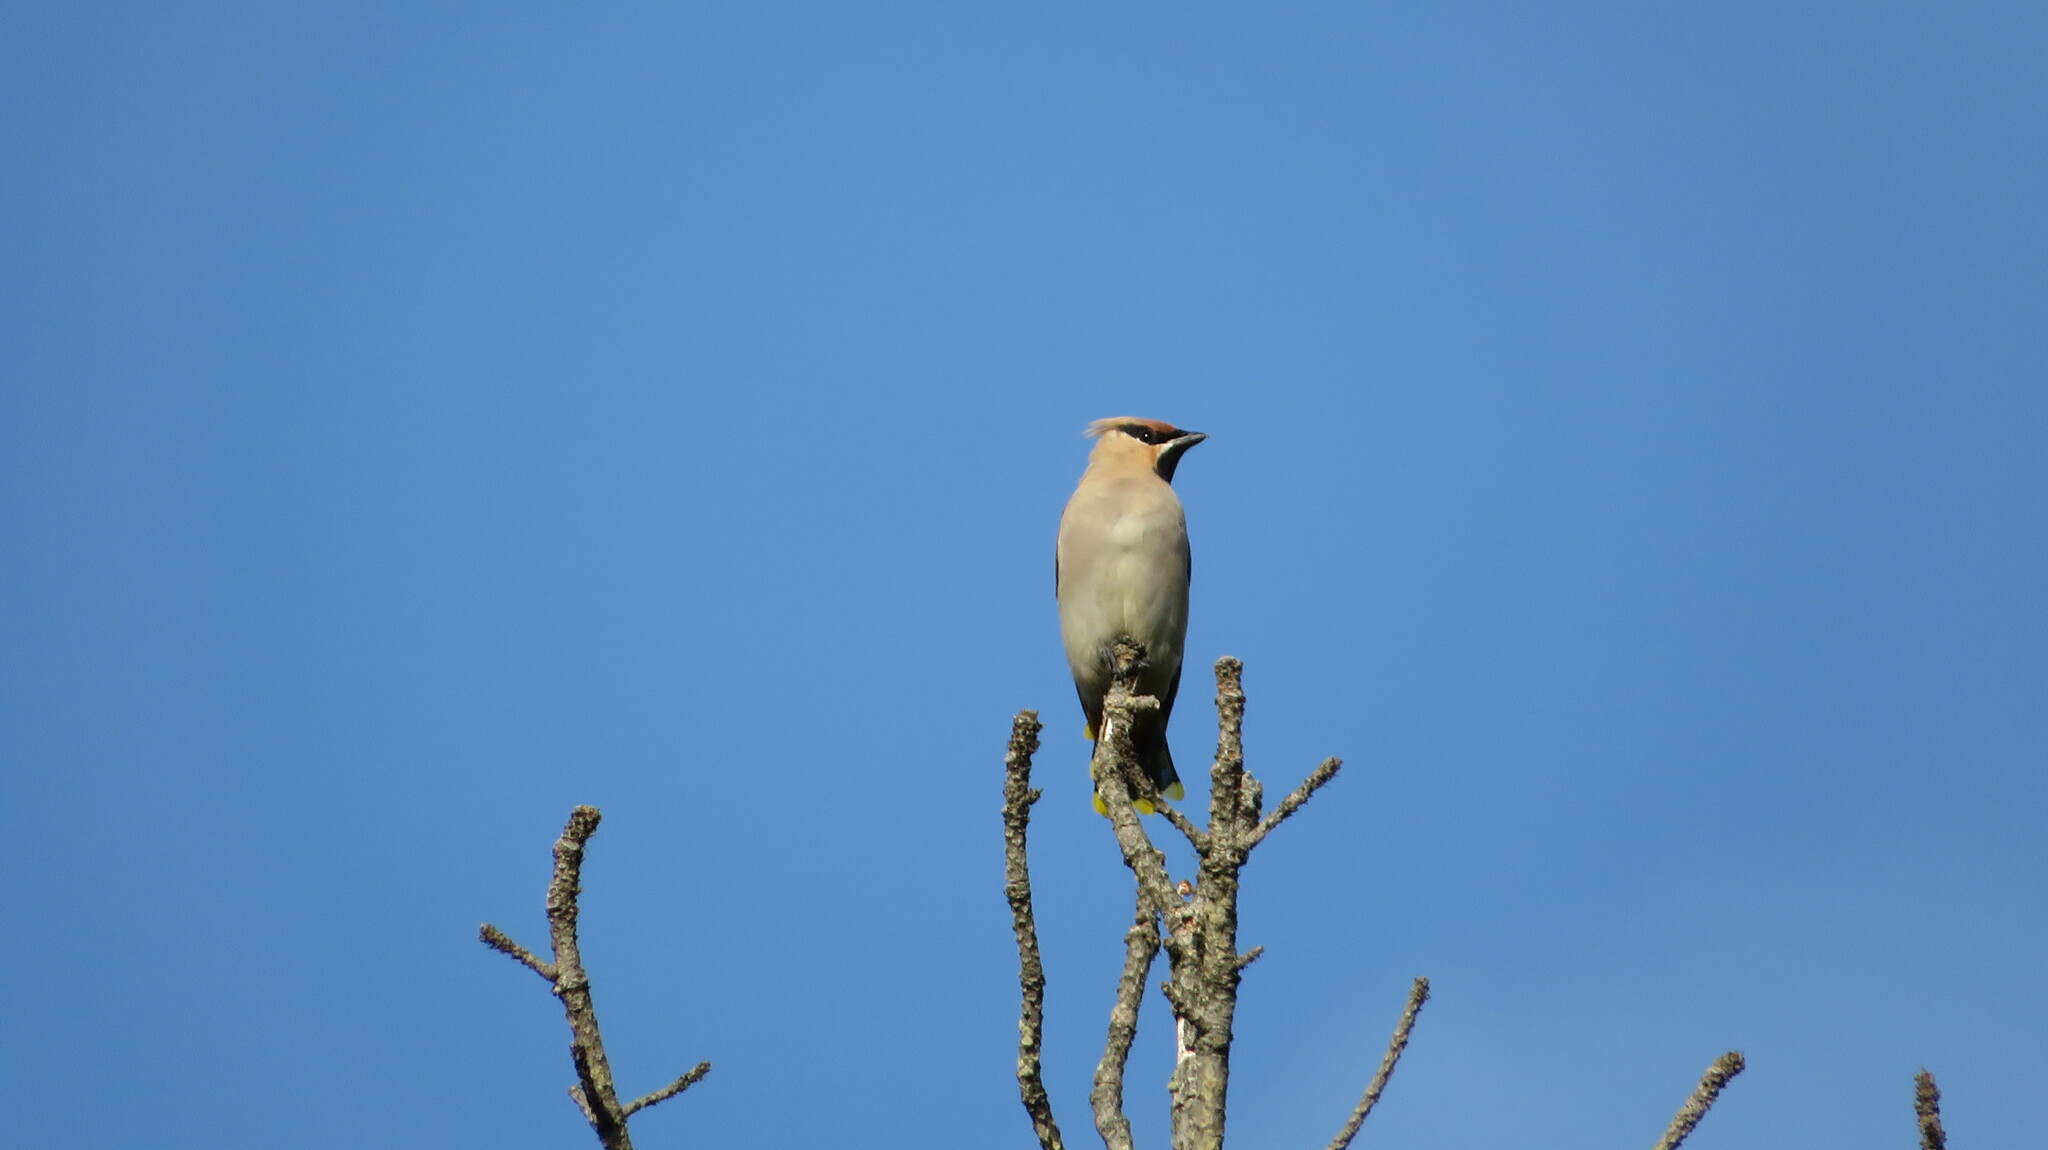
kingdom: Animalia
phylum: Chordata
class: Aves
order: Passeriformes
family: Bombycillidae
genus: Bombycilla
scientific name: Bombycilla garrulus
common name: Bohemian waxwing
